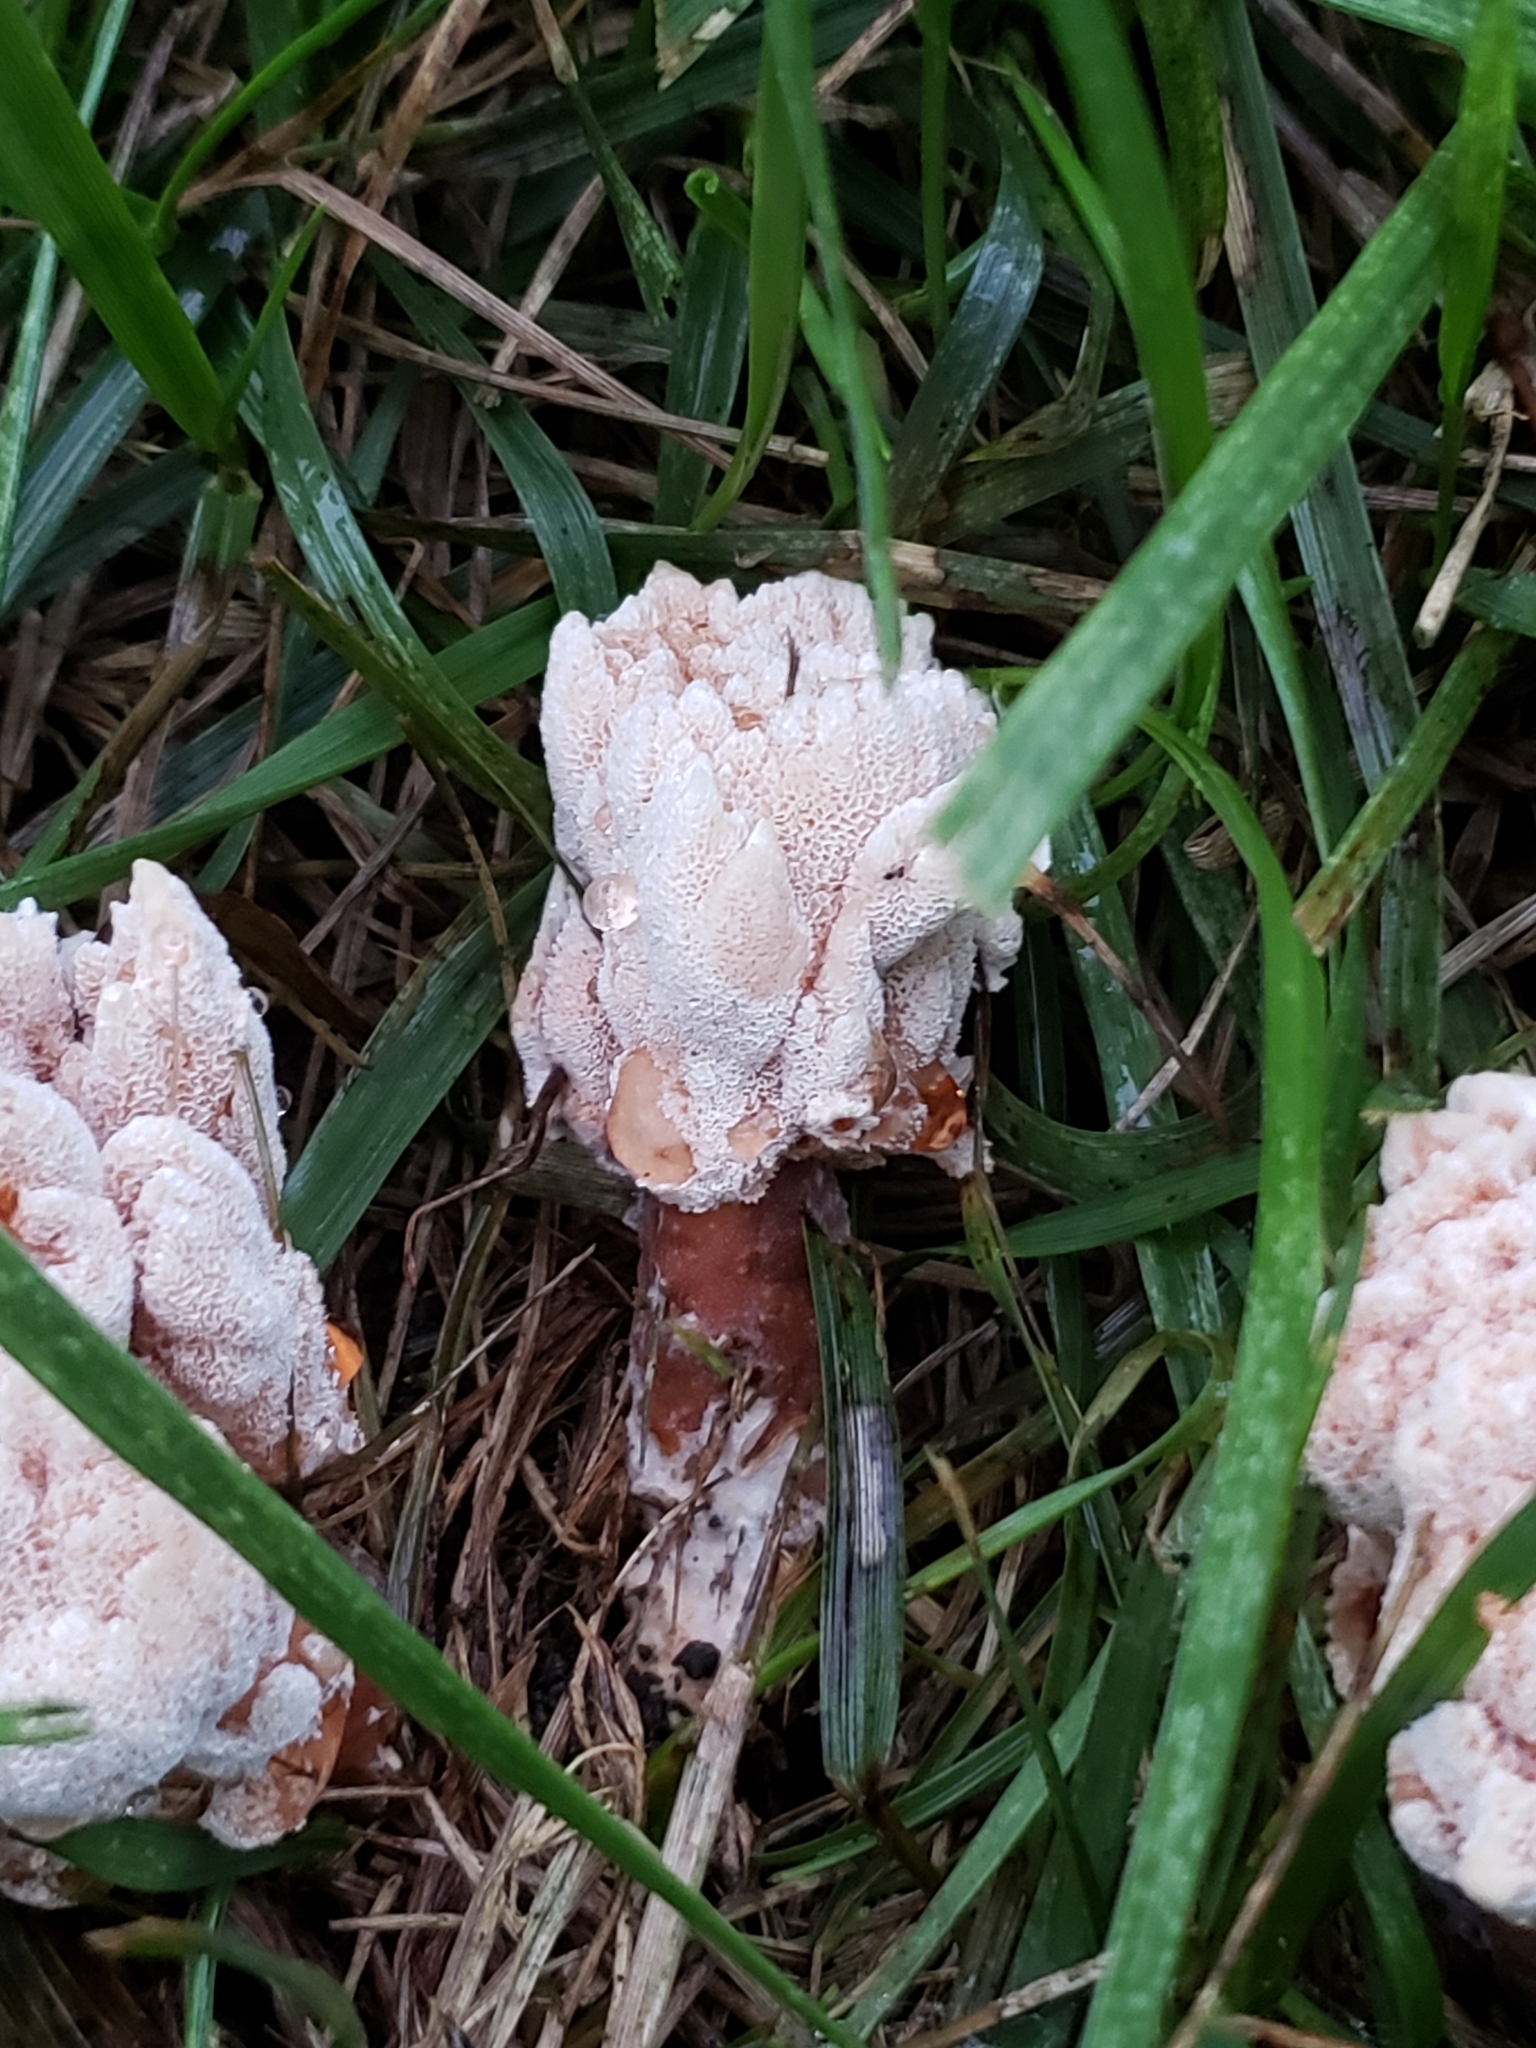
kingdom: Fungi
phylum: Basidiomycota
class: Agaricomycetes
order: Polyporales
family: Podoscyphaceae
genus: Abortiporus
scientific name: Abortiporus biennis
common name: Blushing rosette
